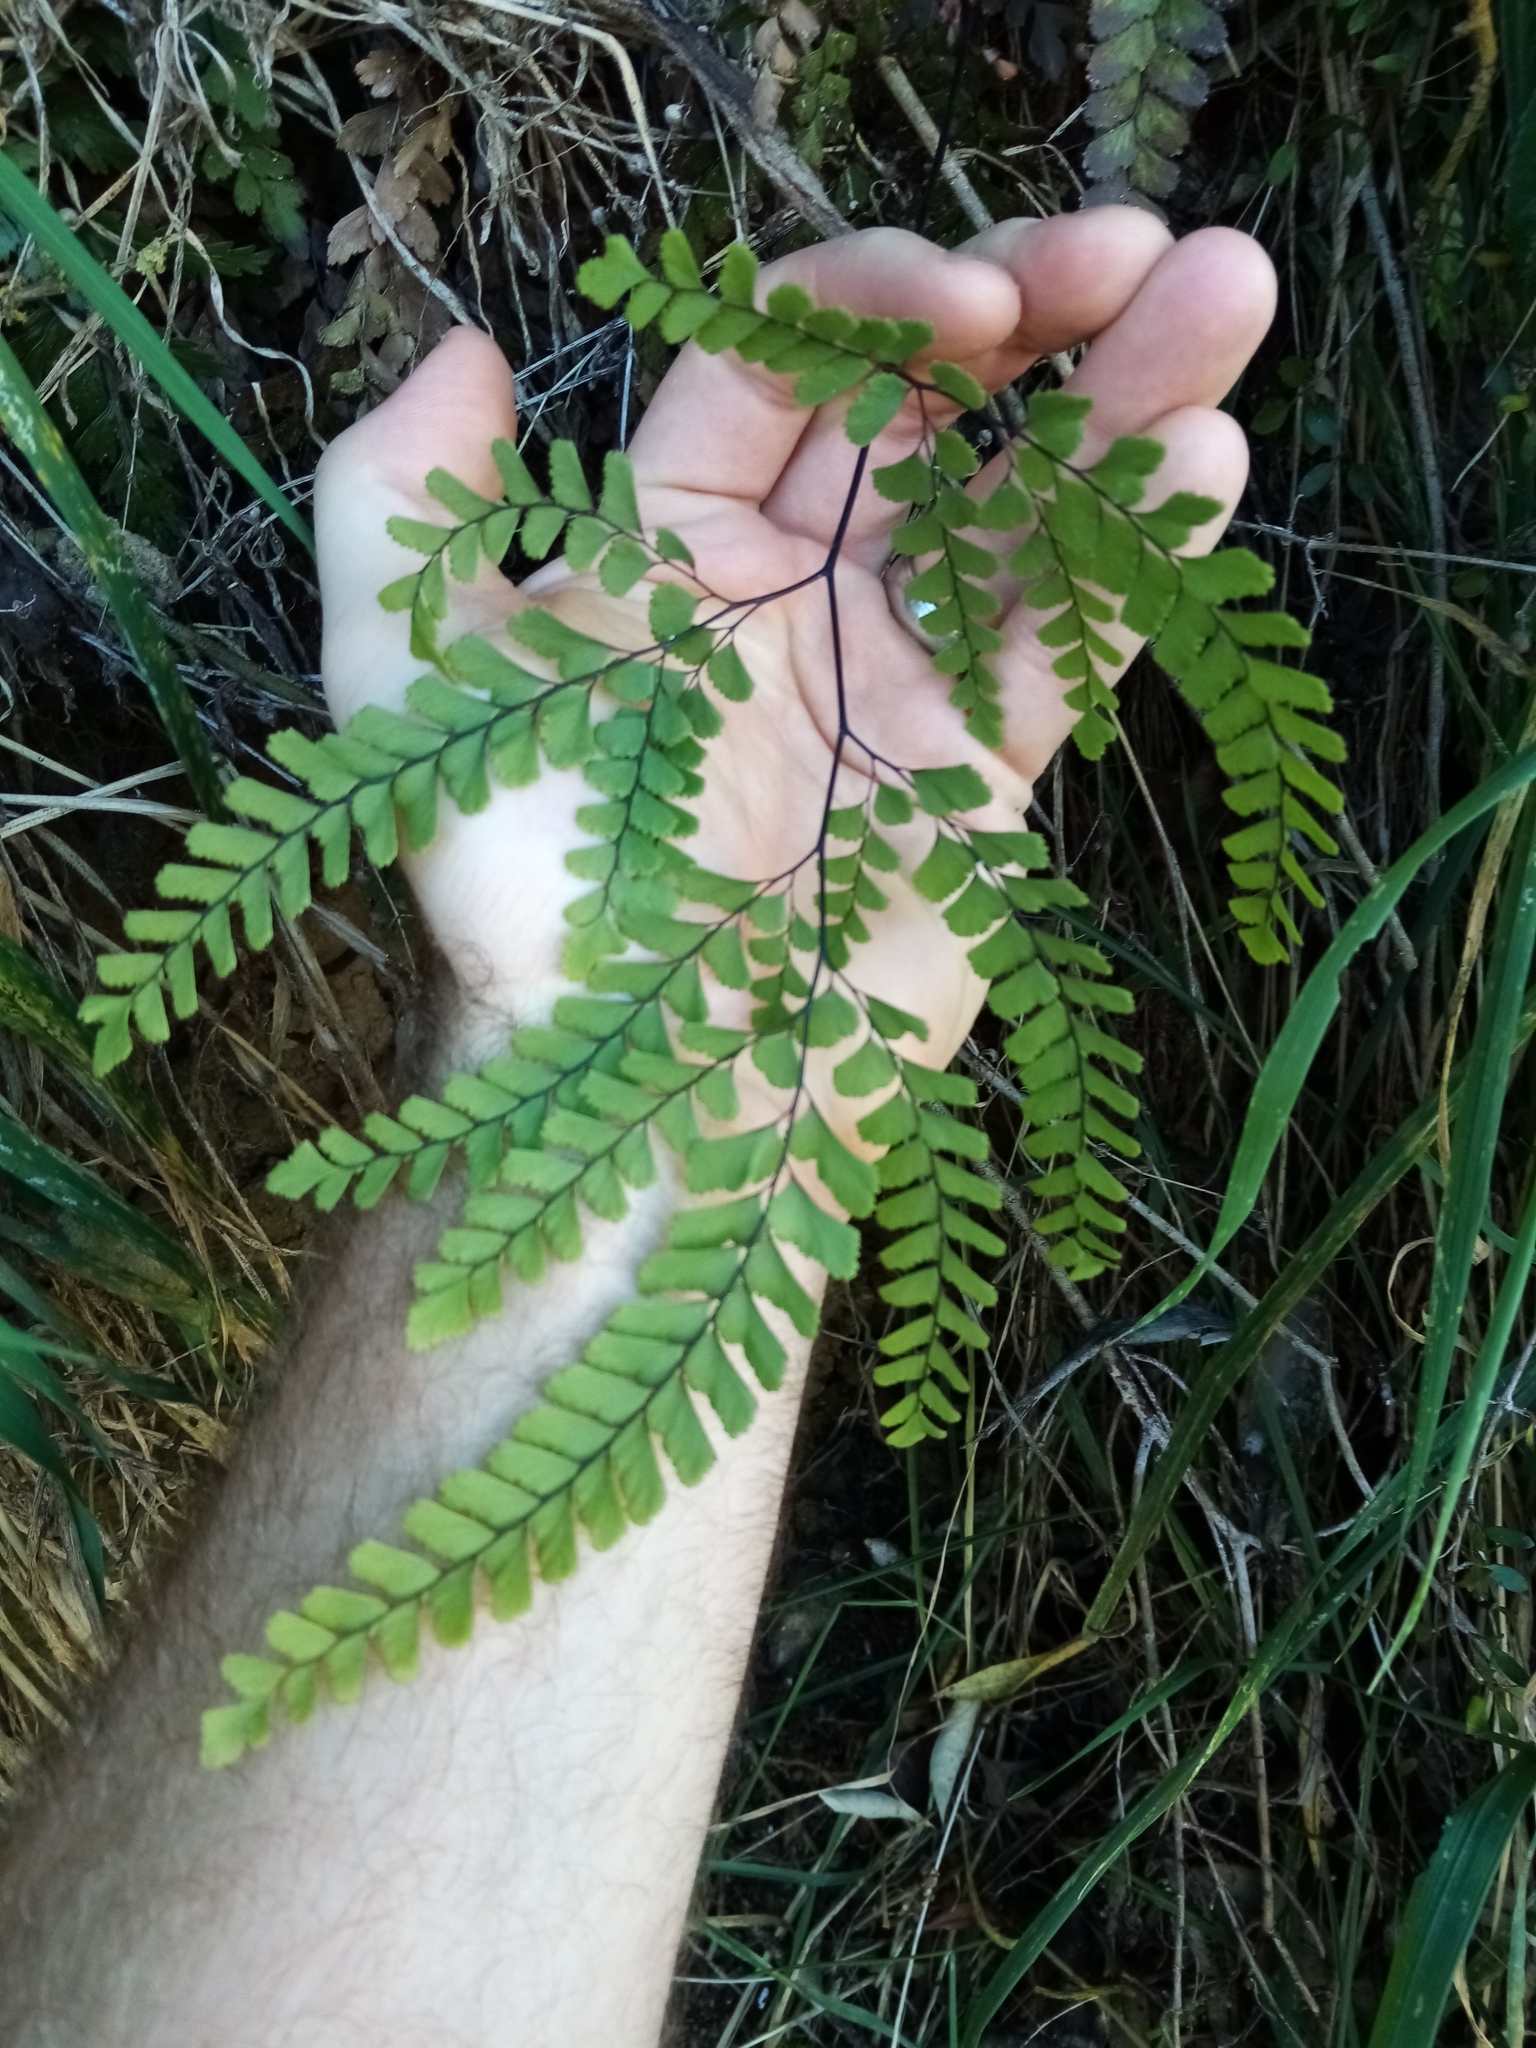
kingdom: Plantae
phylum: Tracheophyta
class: Polypodiopsida
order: Polypodiales
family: Pteridaceae
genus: Adiantum
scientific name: Adiantum cunninghamii
